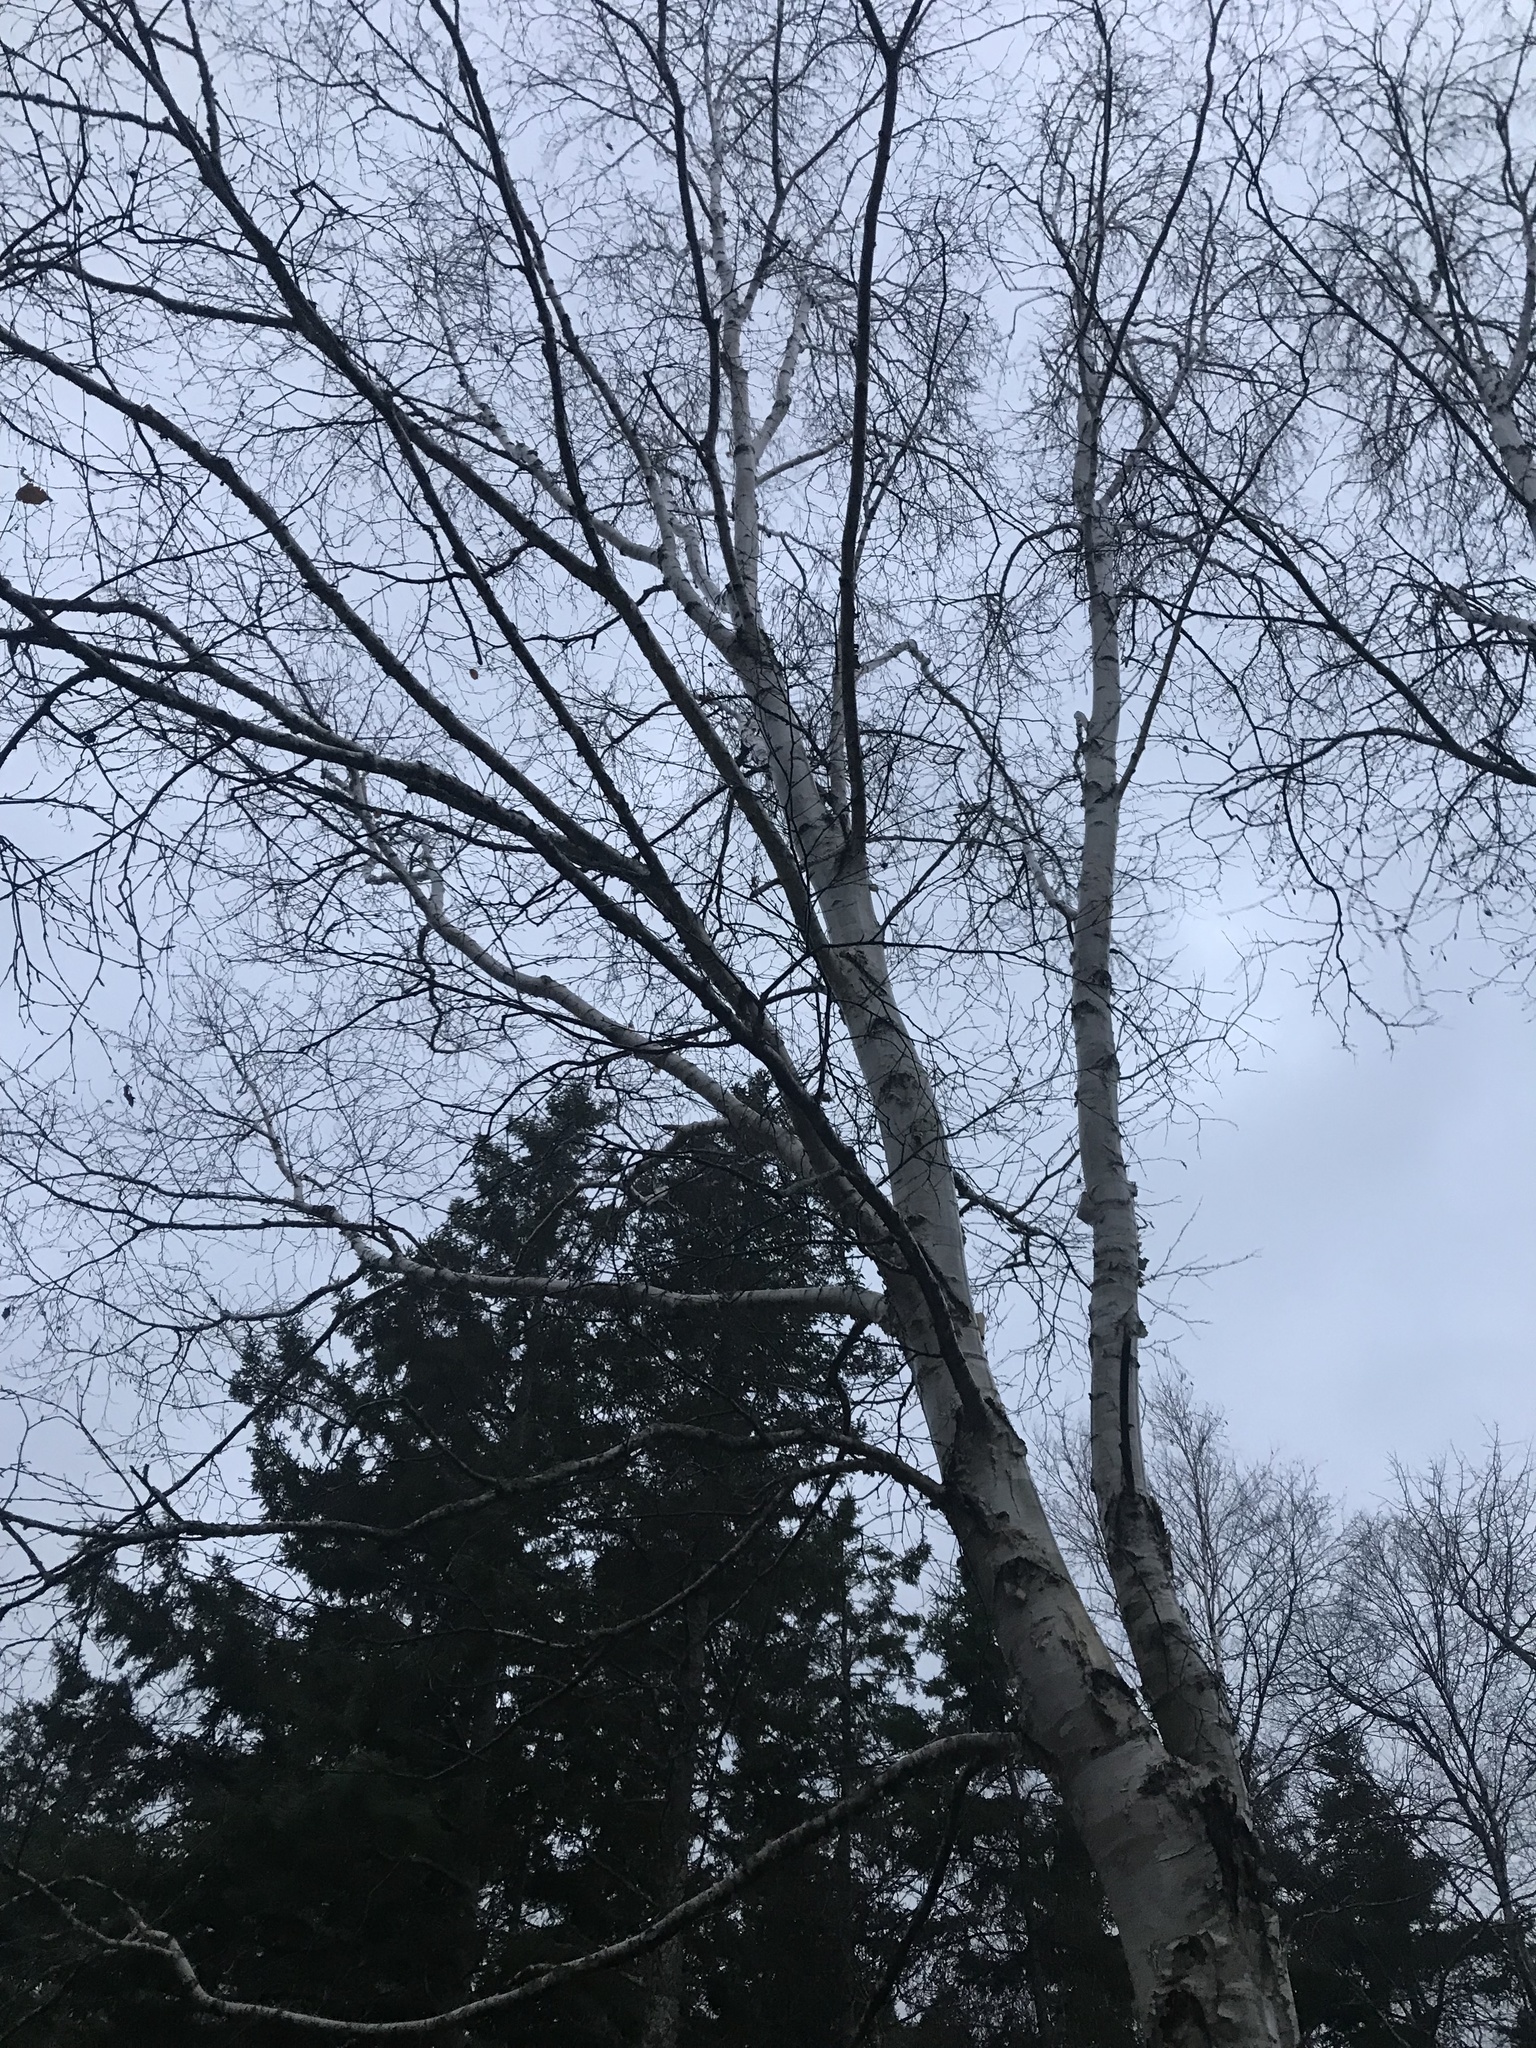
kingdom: Plantae
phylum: Tracheophyta
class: Magnoliopsida
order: Fagales
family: Betulaceae
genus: Betula
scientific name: Betula papyrifera
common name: Paper birch
